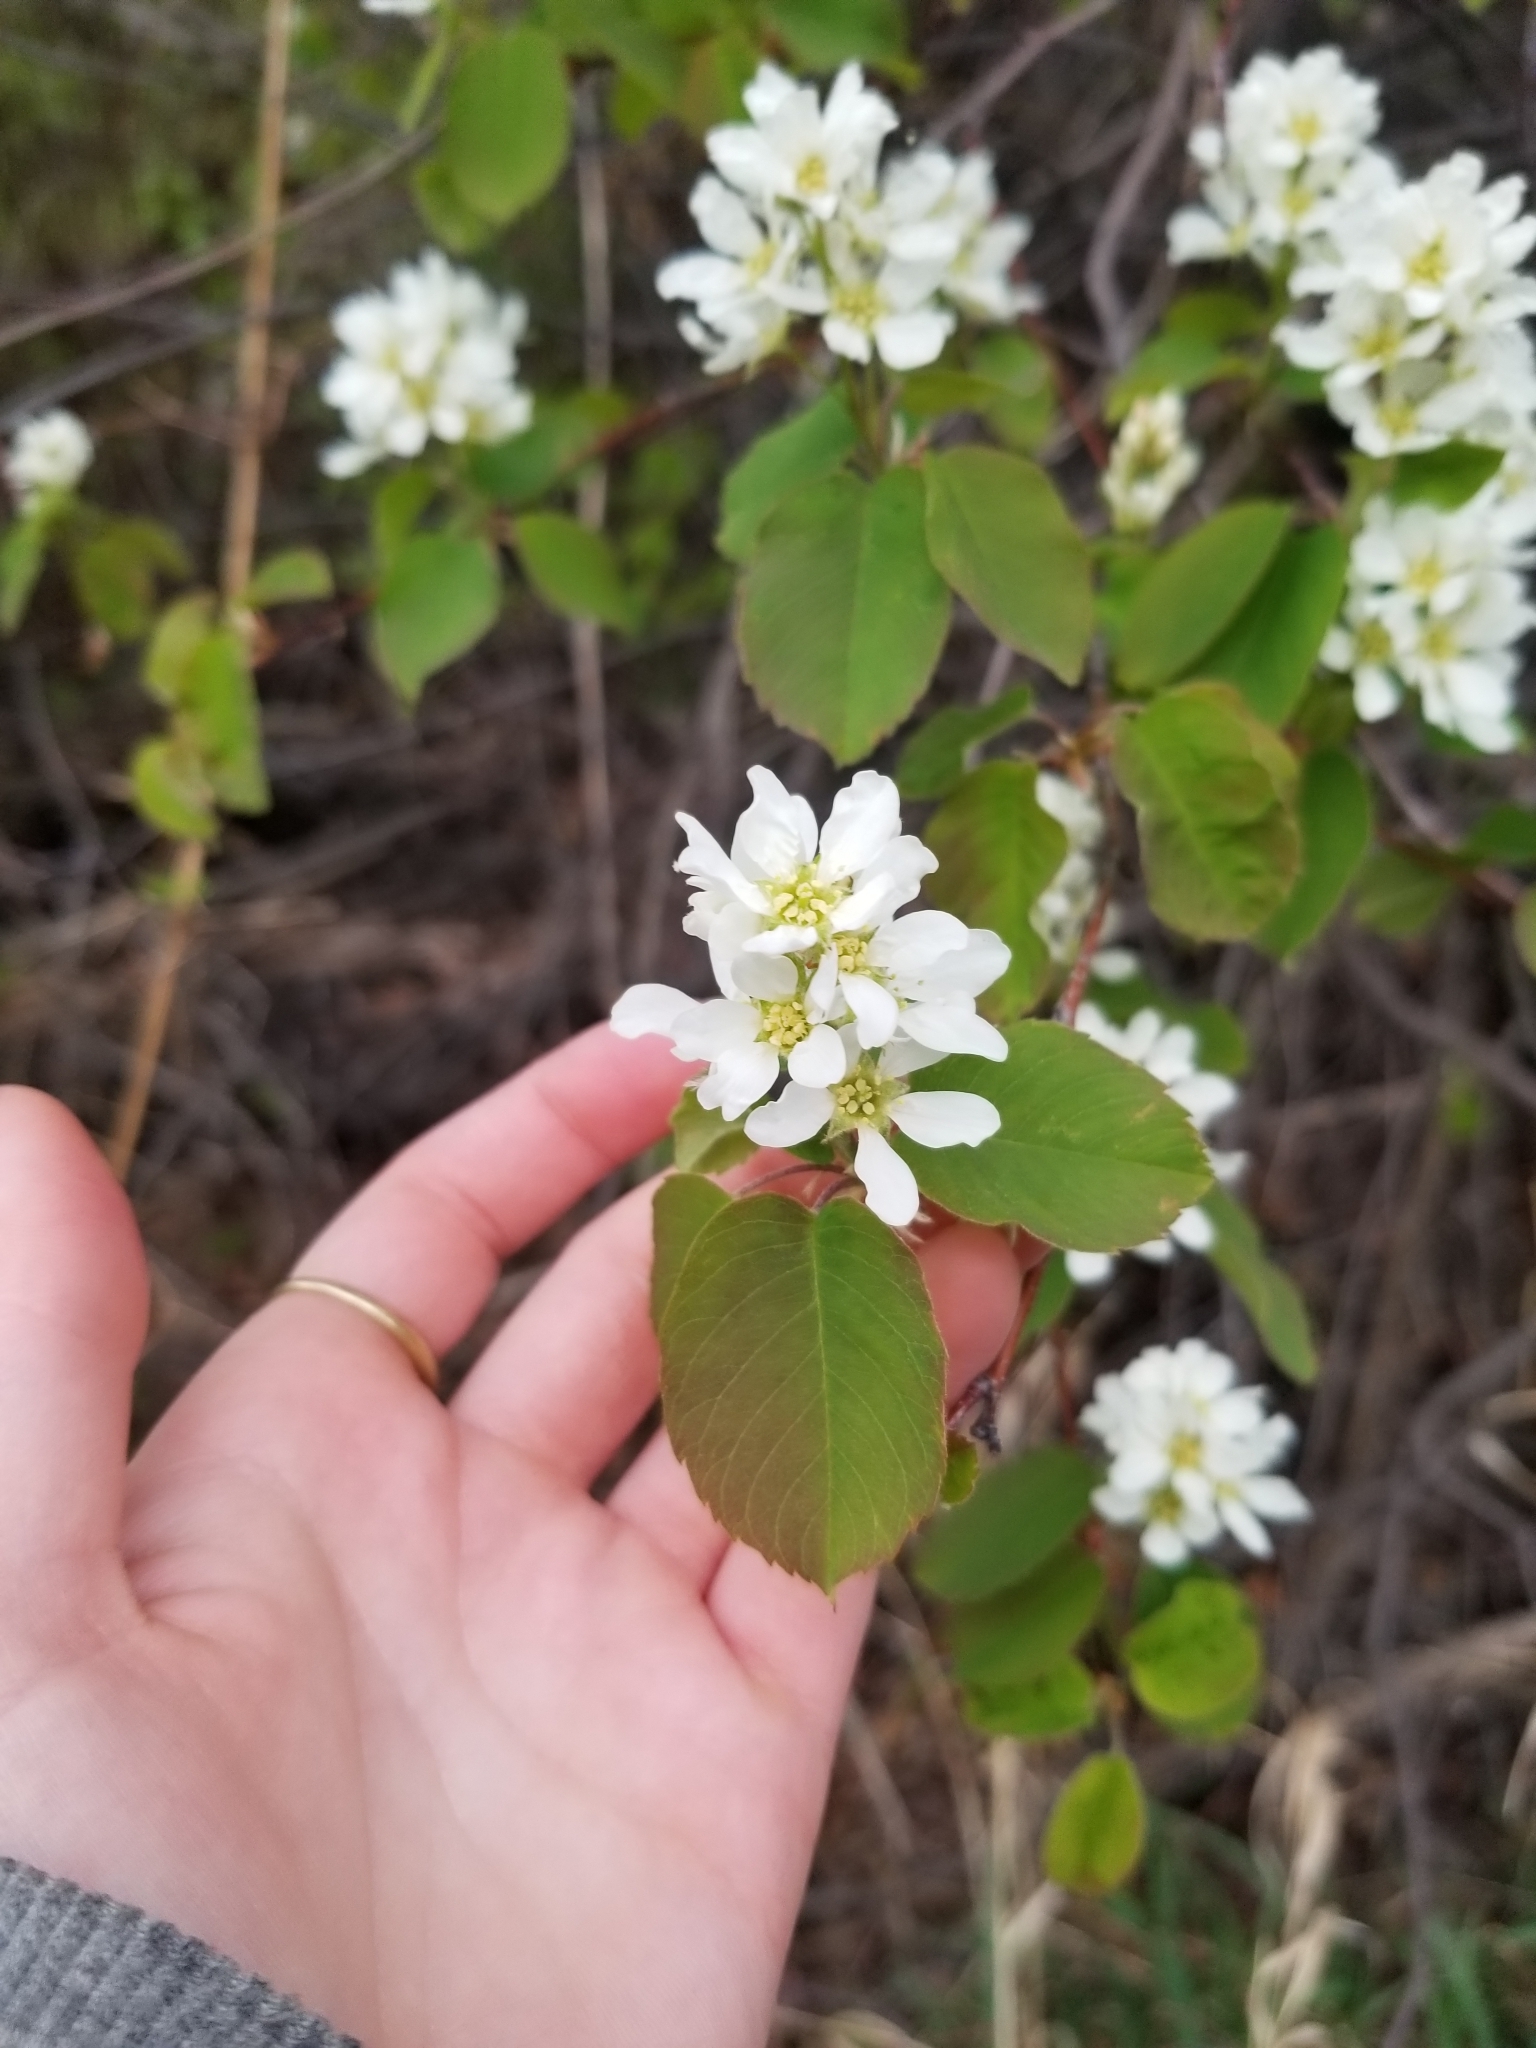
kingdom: Plantae
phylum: Tracheophyta
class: Magnoliopsida
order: Rosales
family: Rosaceae
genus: Amelanchier
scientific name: Amelanchier alnifolia
